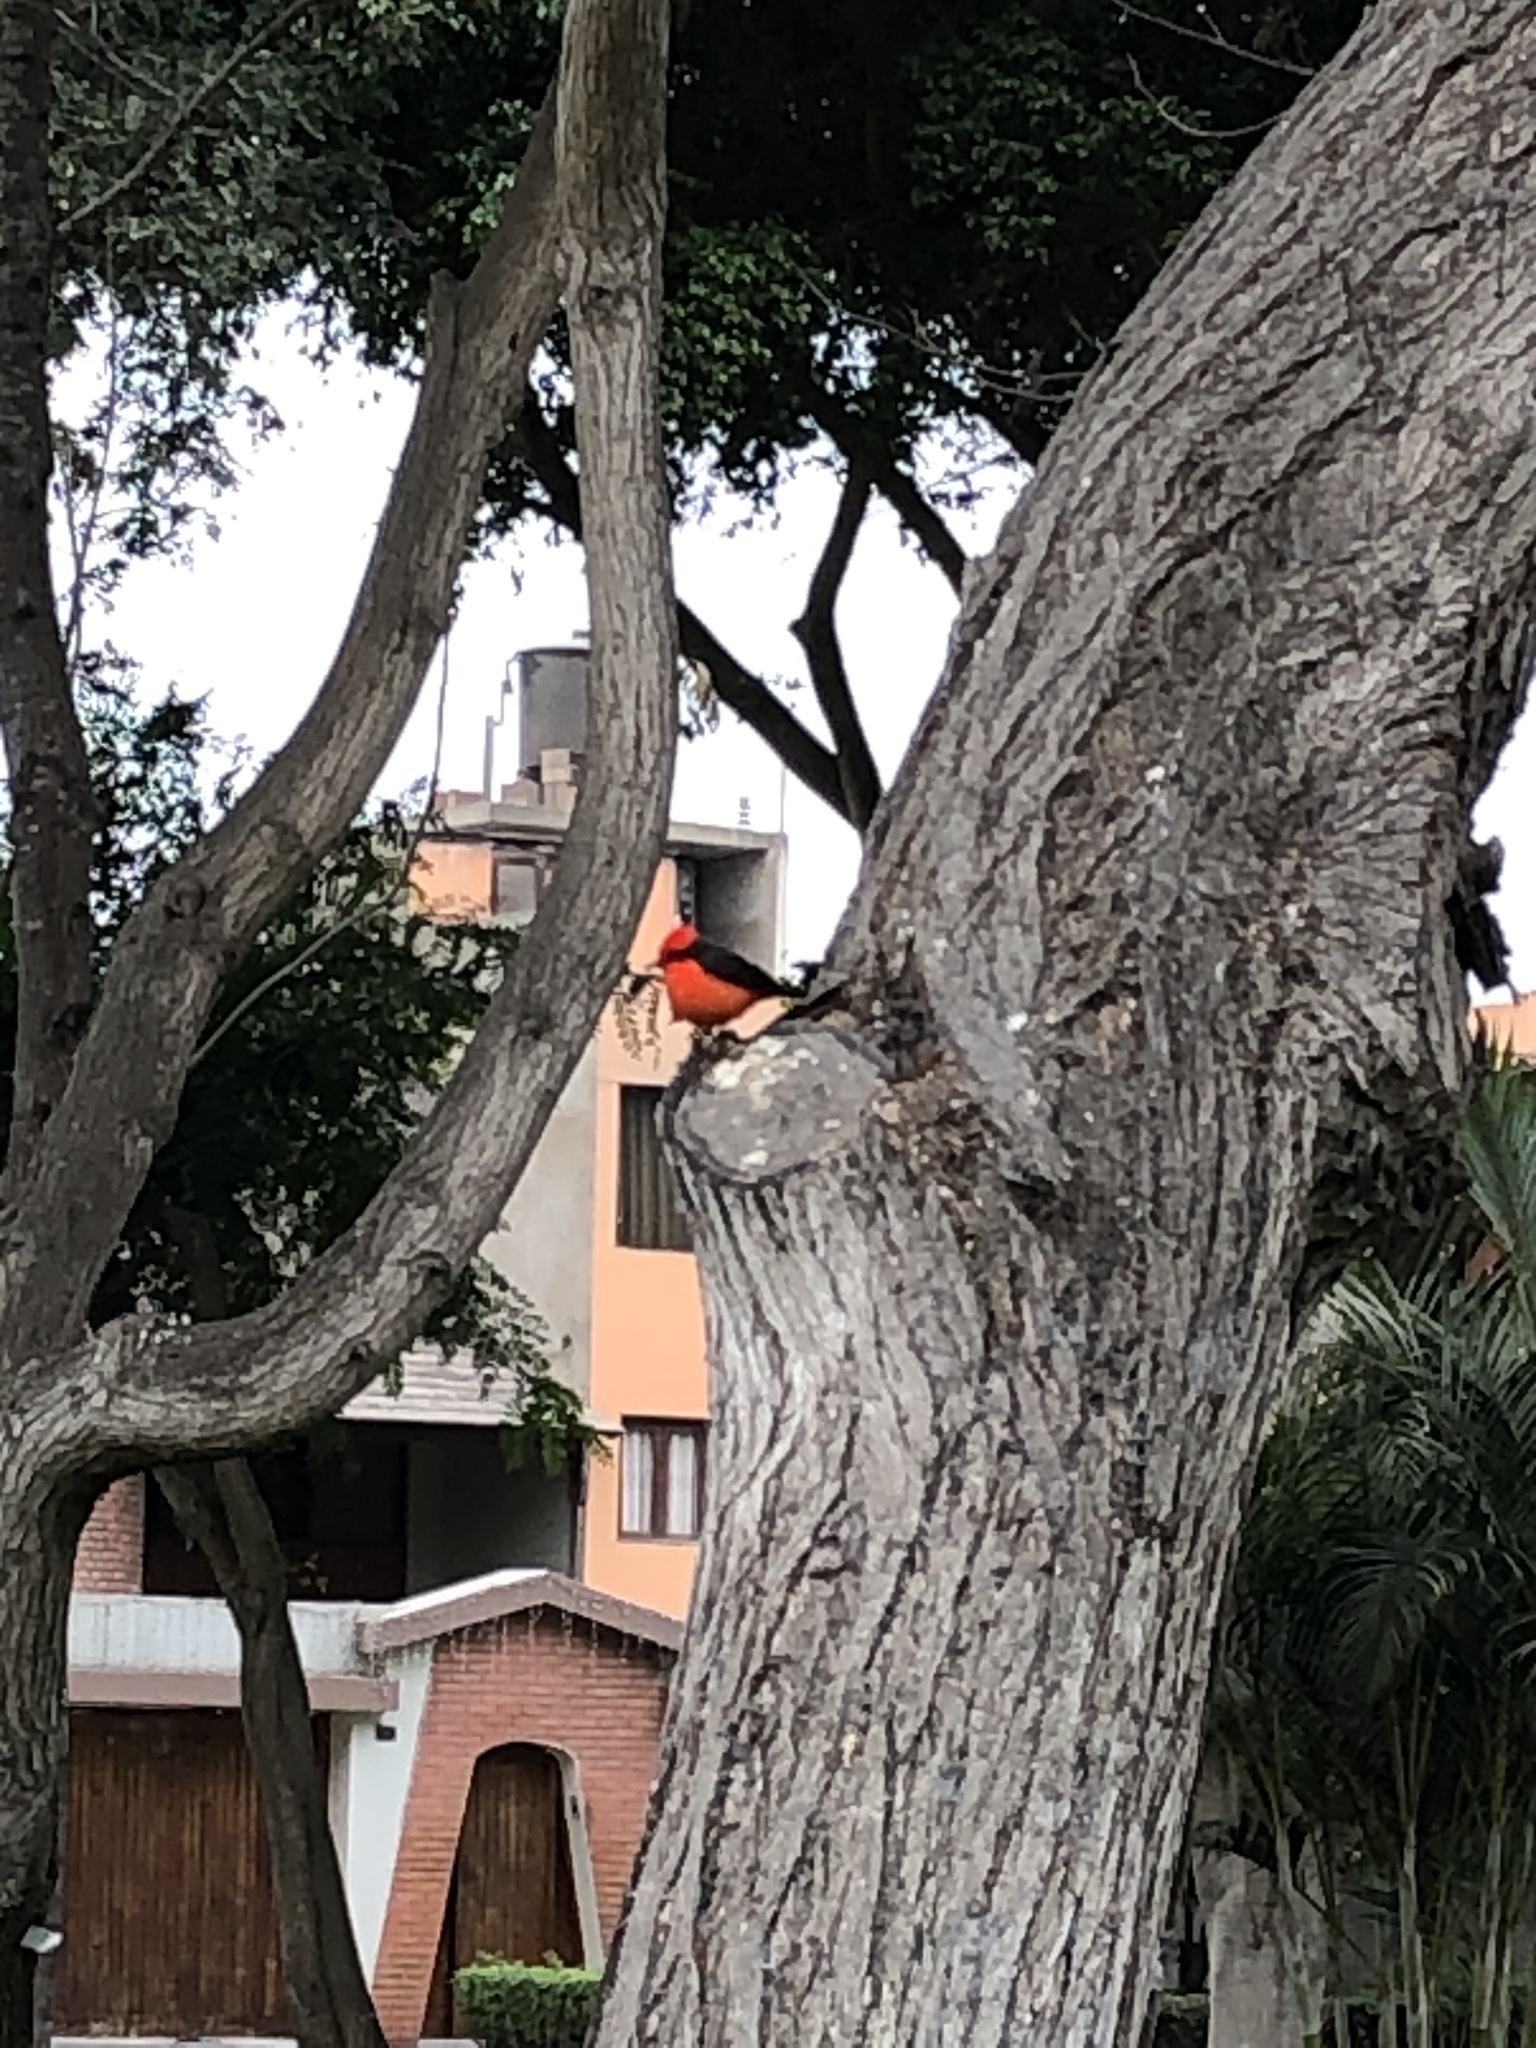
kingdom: Animalia
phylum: Chordata
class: Aves
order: Passeriformes
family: Tyrannidae
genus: Pyrocephalus
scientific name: Pyrocephalus rubinus
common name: Vermilion flycatcher
